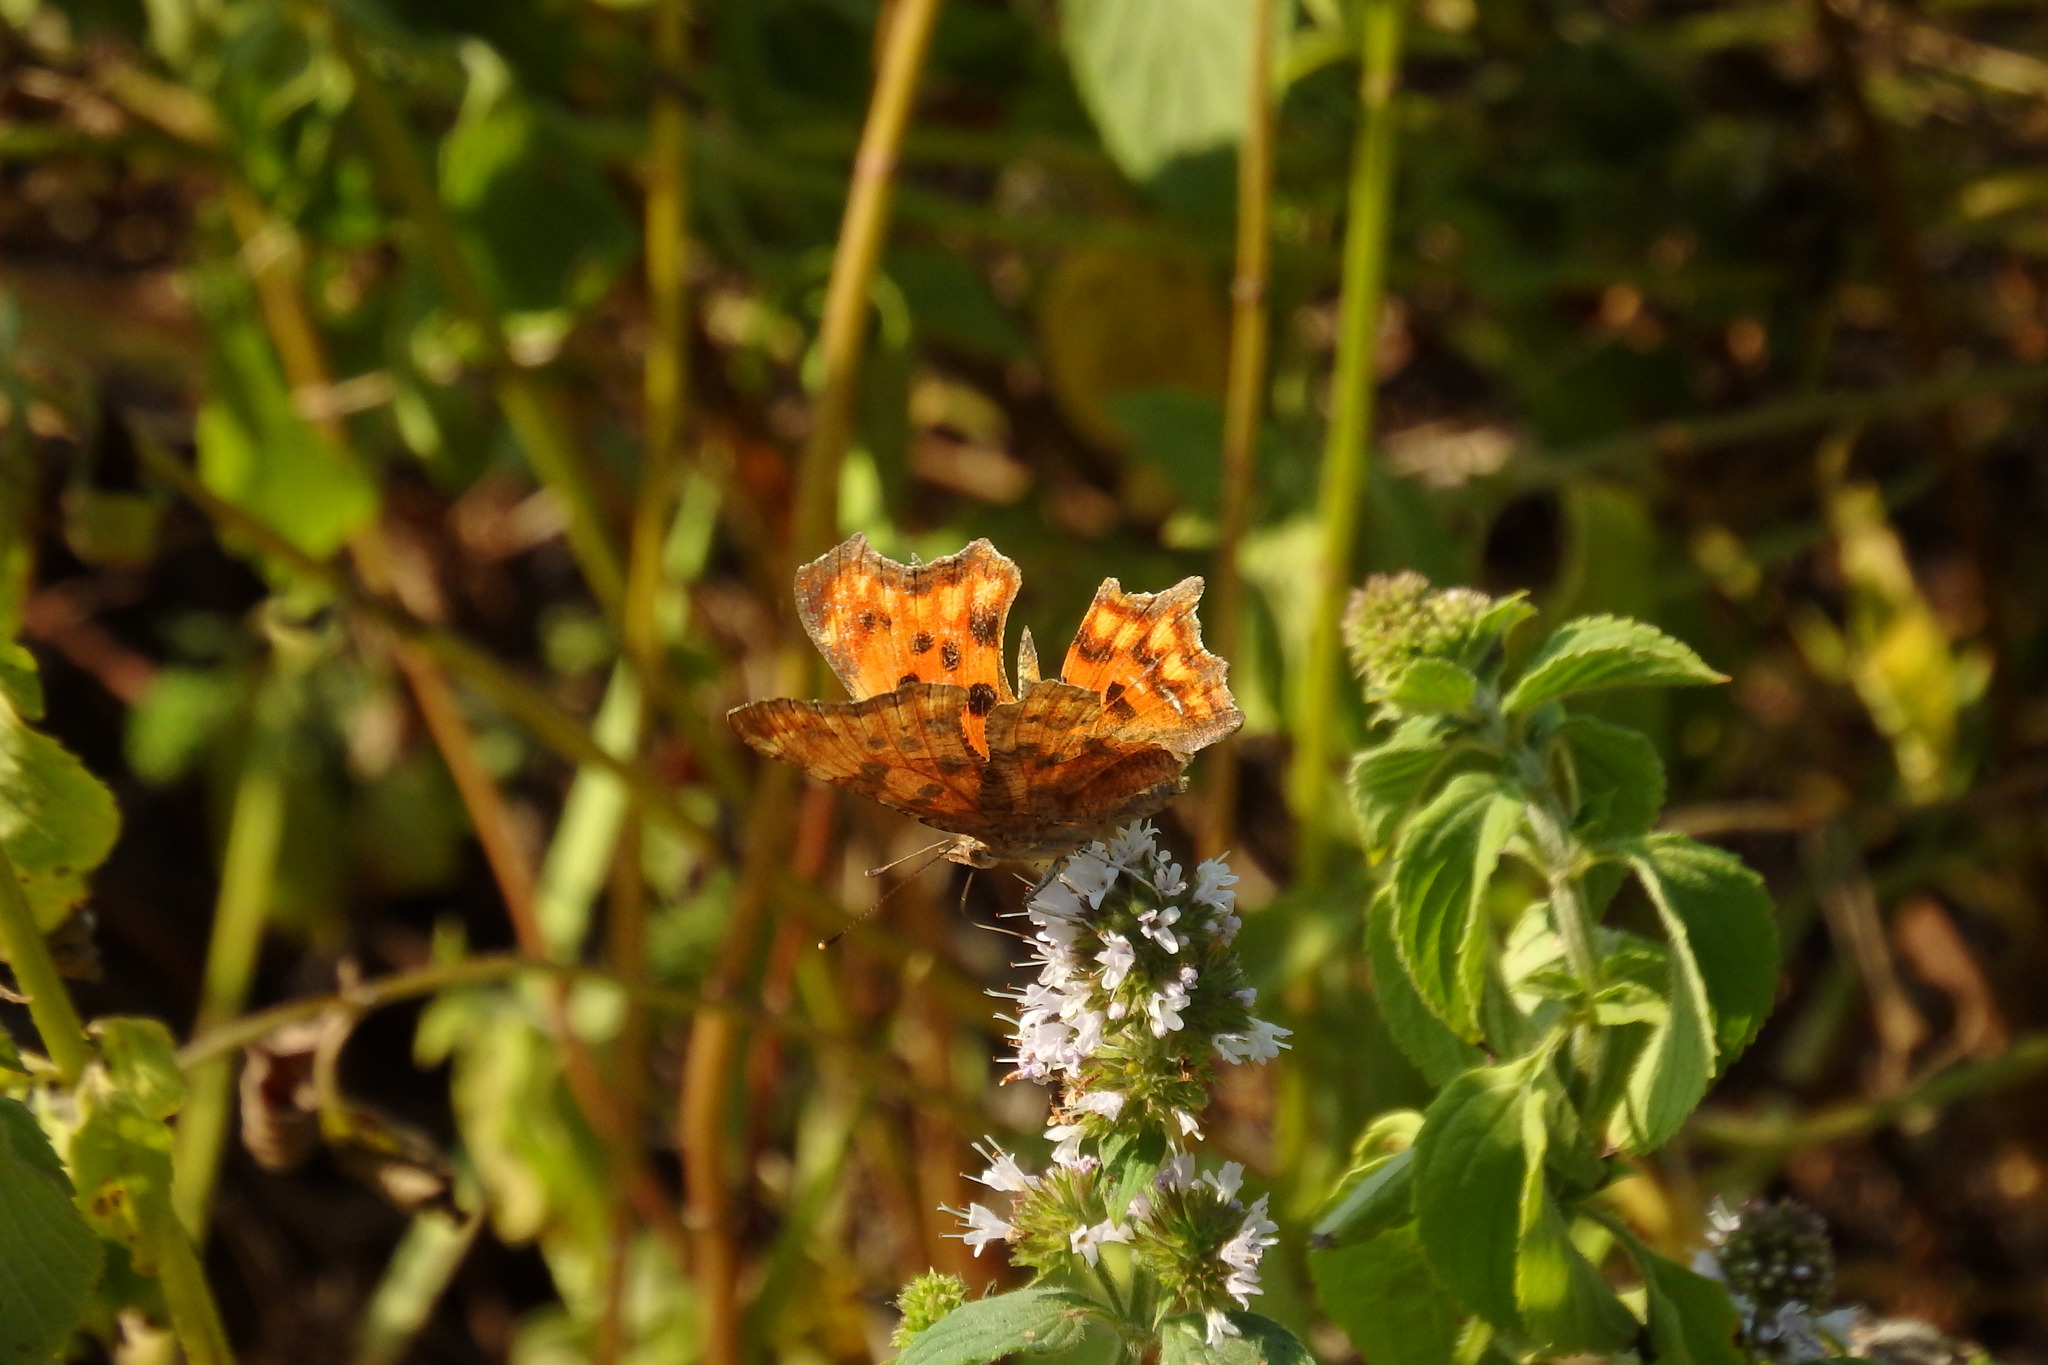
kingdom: Animalia
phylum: Arthropoda
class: Insecta
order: Lepidoptera
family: Nymphalidae
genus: Polygonia
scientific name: Polygonia c-album
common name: Comma
